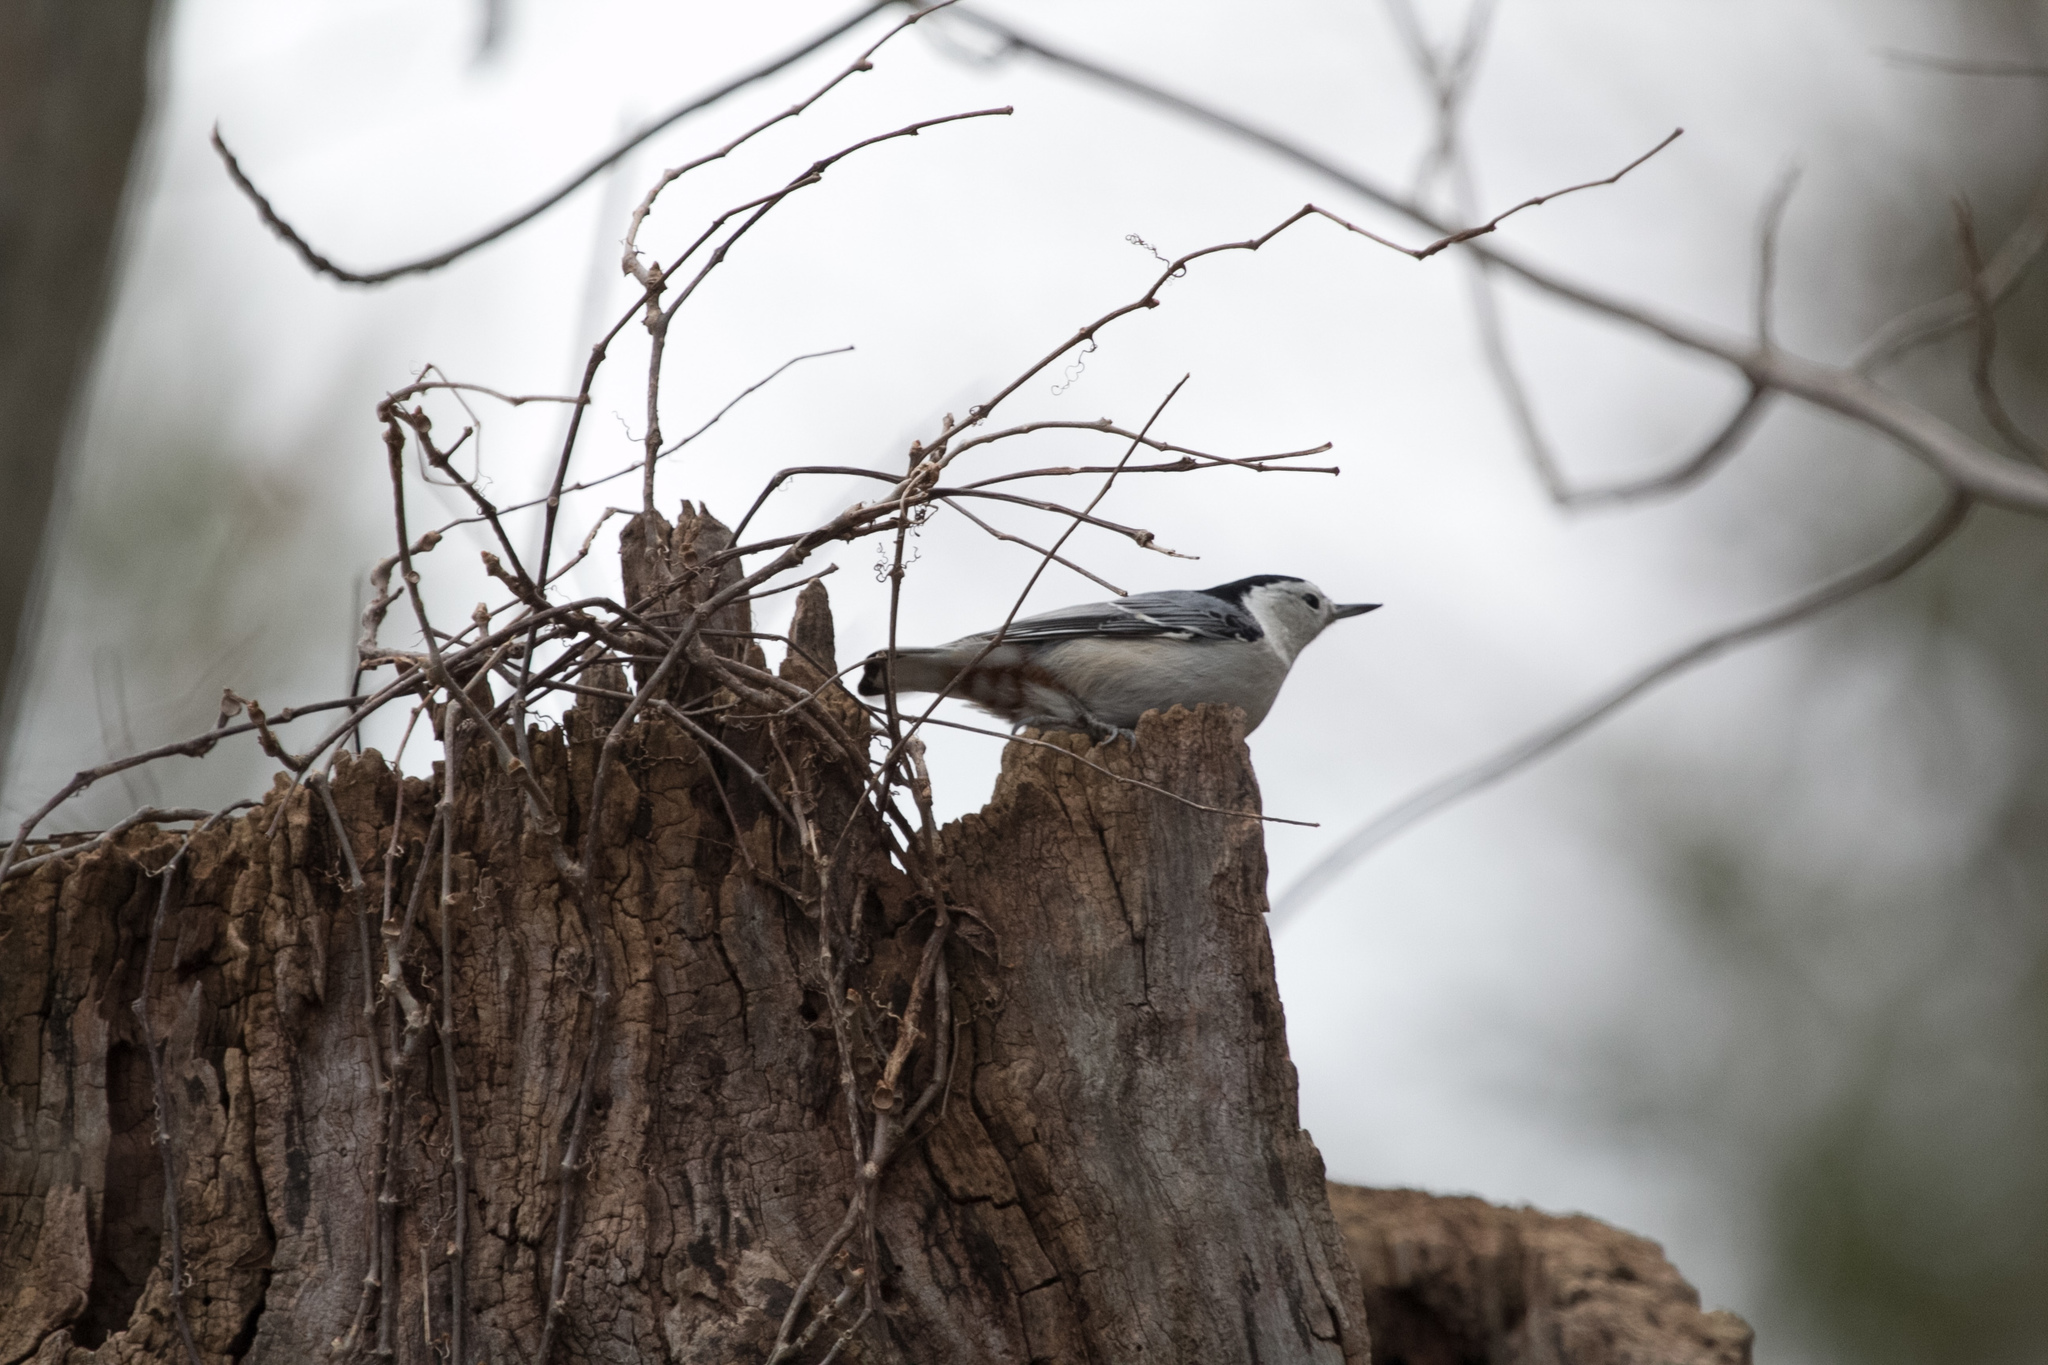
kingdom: Animalia
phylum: Chordata
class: Aves
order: Passeriformes
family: Sittidae
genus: Sitta
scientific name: Sitta carolinensis
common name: White-breasted nuthatch
